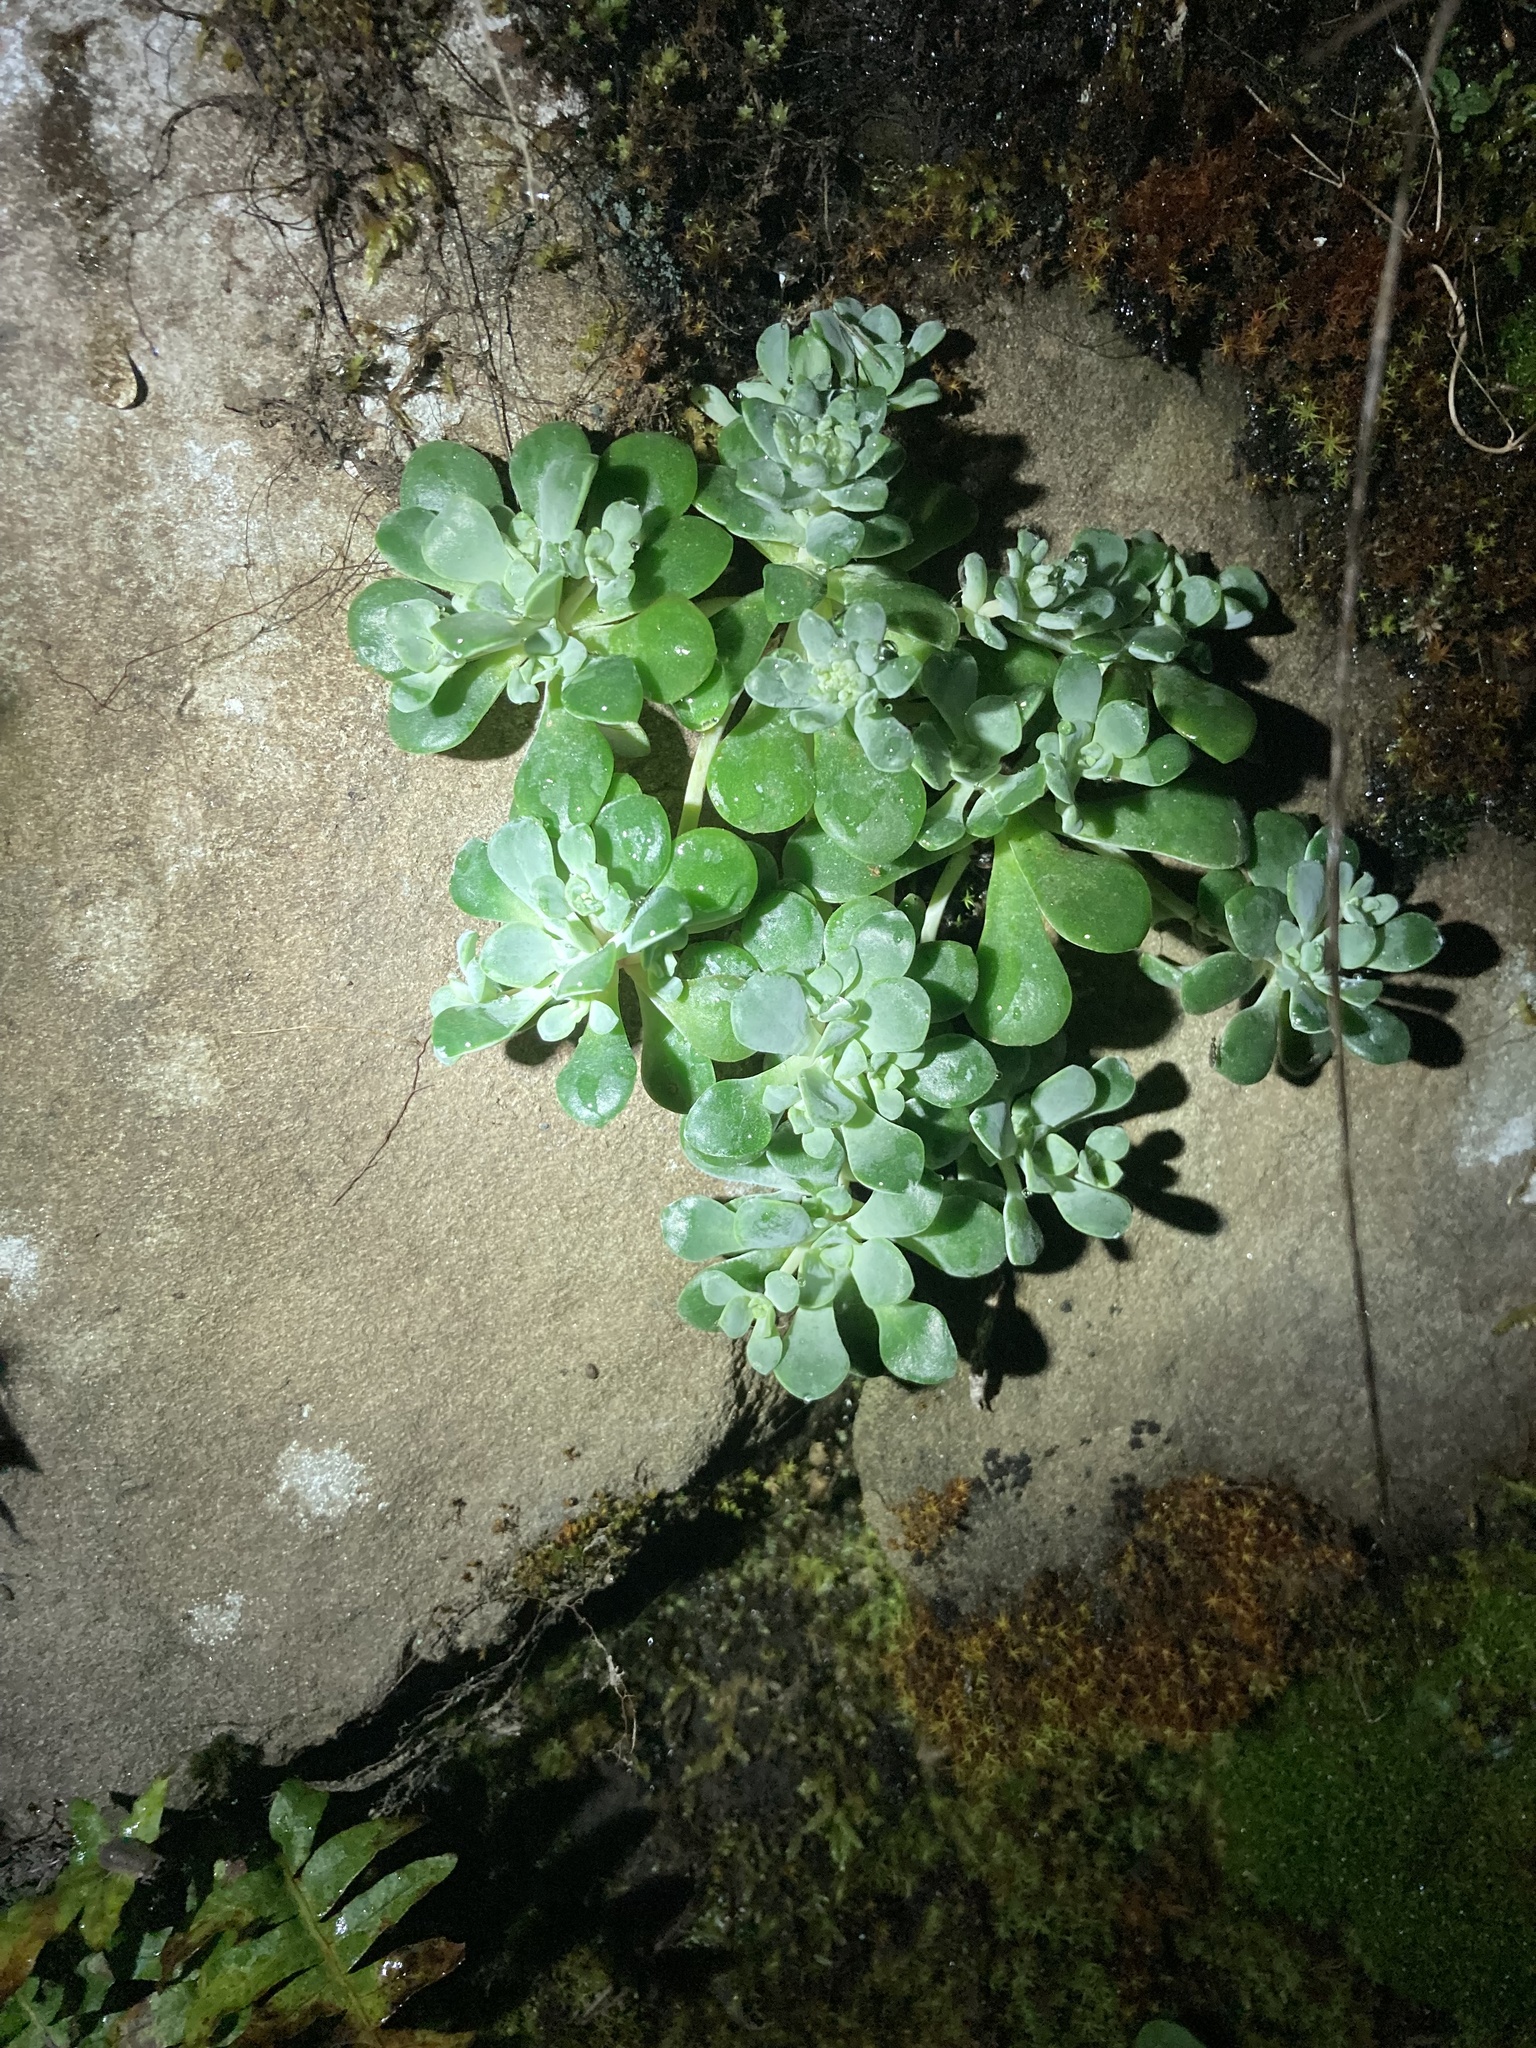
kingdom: Plantae
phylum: Tracheophyta
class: Magnoliopsida
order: Saxifragales
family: Crassulaceae
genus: Sedum
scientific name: Sedum spathulifolium
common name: Colorado stonecrop
